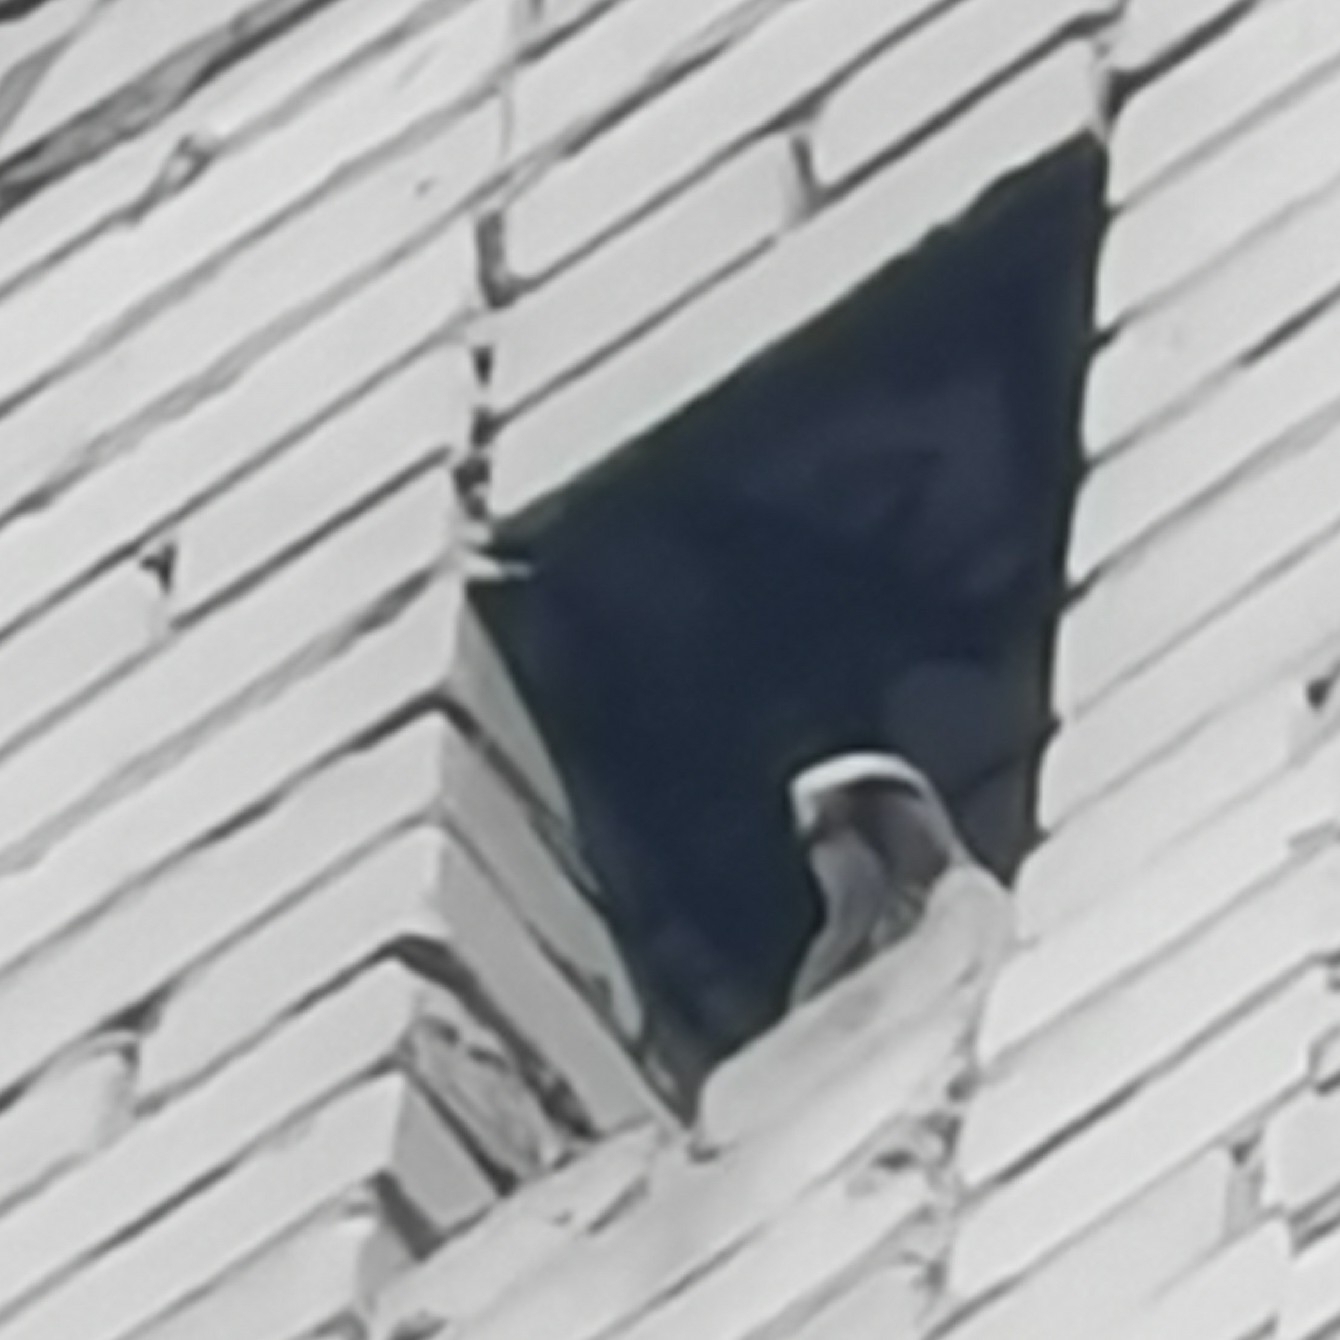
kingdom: Animalia
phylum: Chordata
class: Aves
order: Falconiformes
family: Falconidae
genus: Falco
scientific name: Falco tinnunculus
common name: Common kestrel
